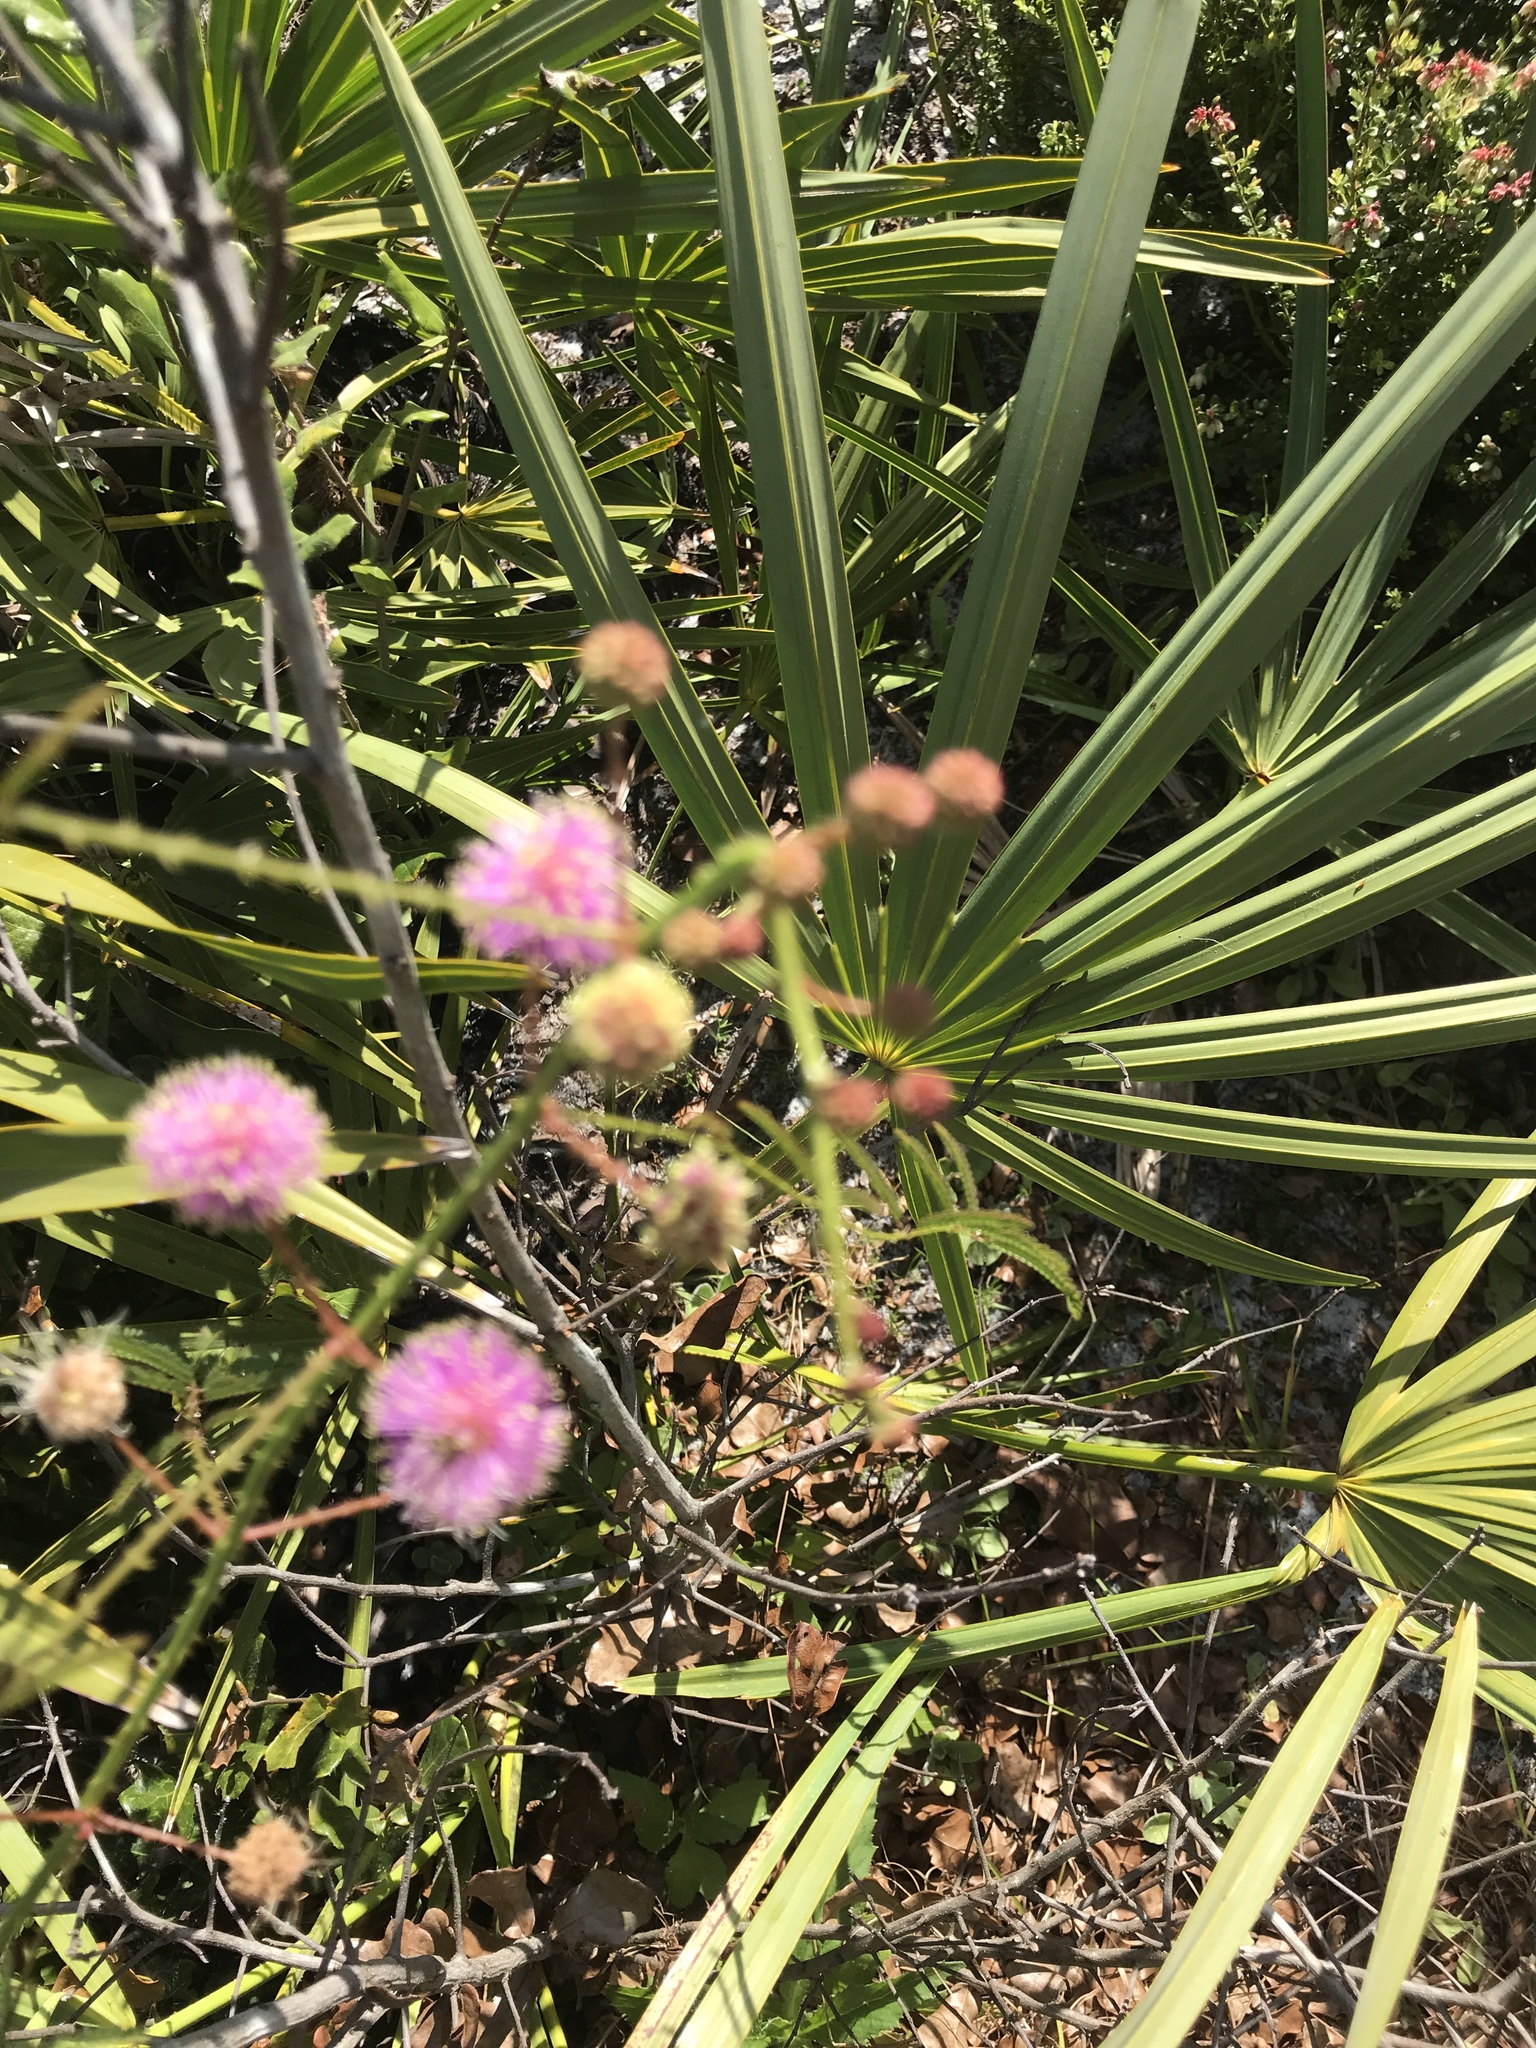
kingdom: Plantae
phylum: Tracheophyta
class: Magnoliopsida
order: Fabales
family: Fabaceae
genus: Mimosa
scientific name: Mimosa quadrivalvis
